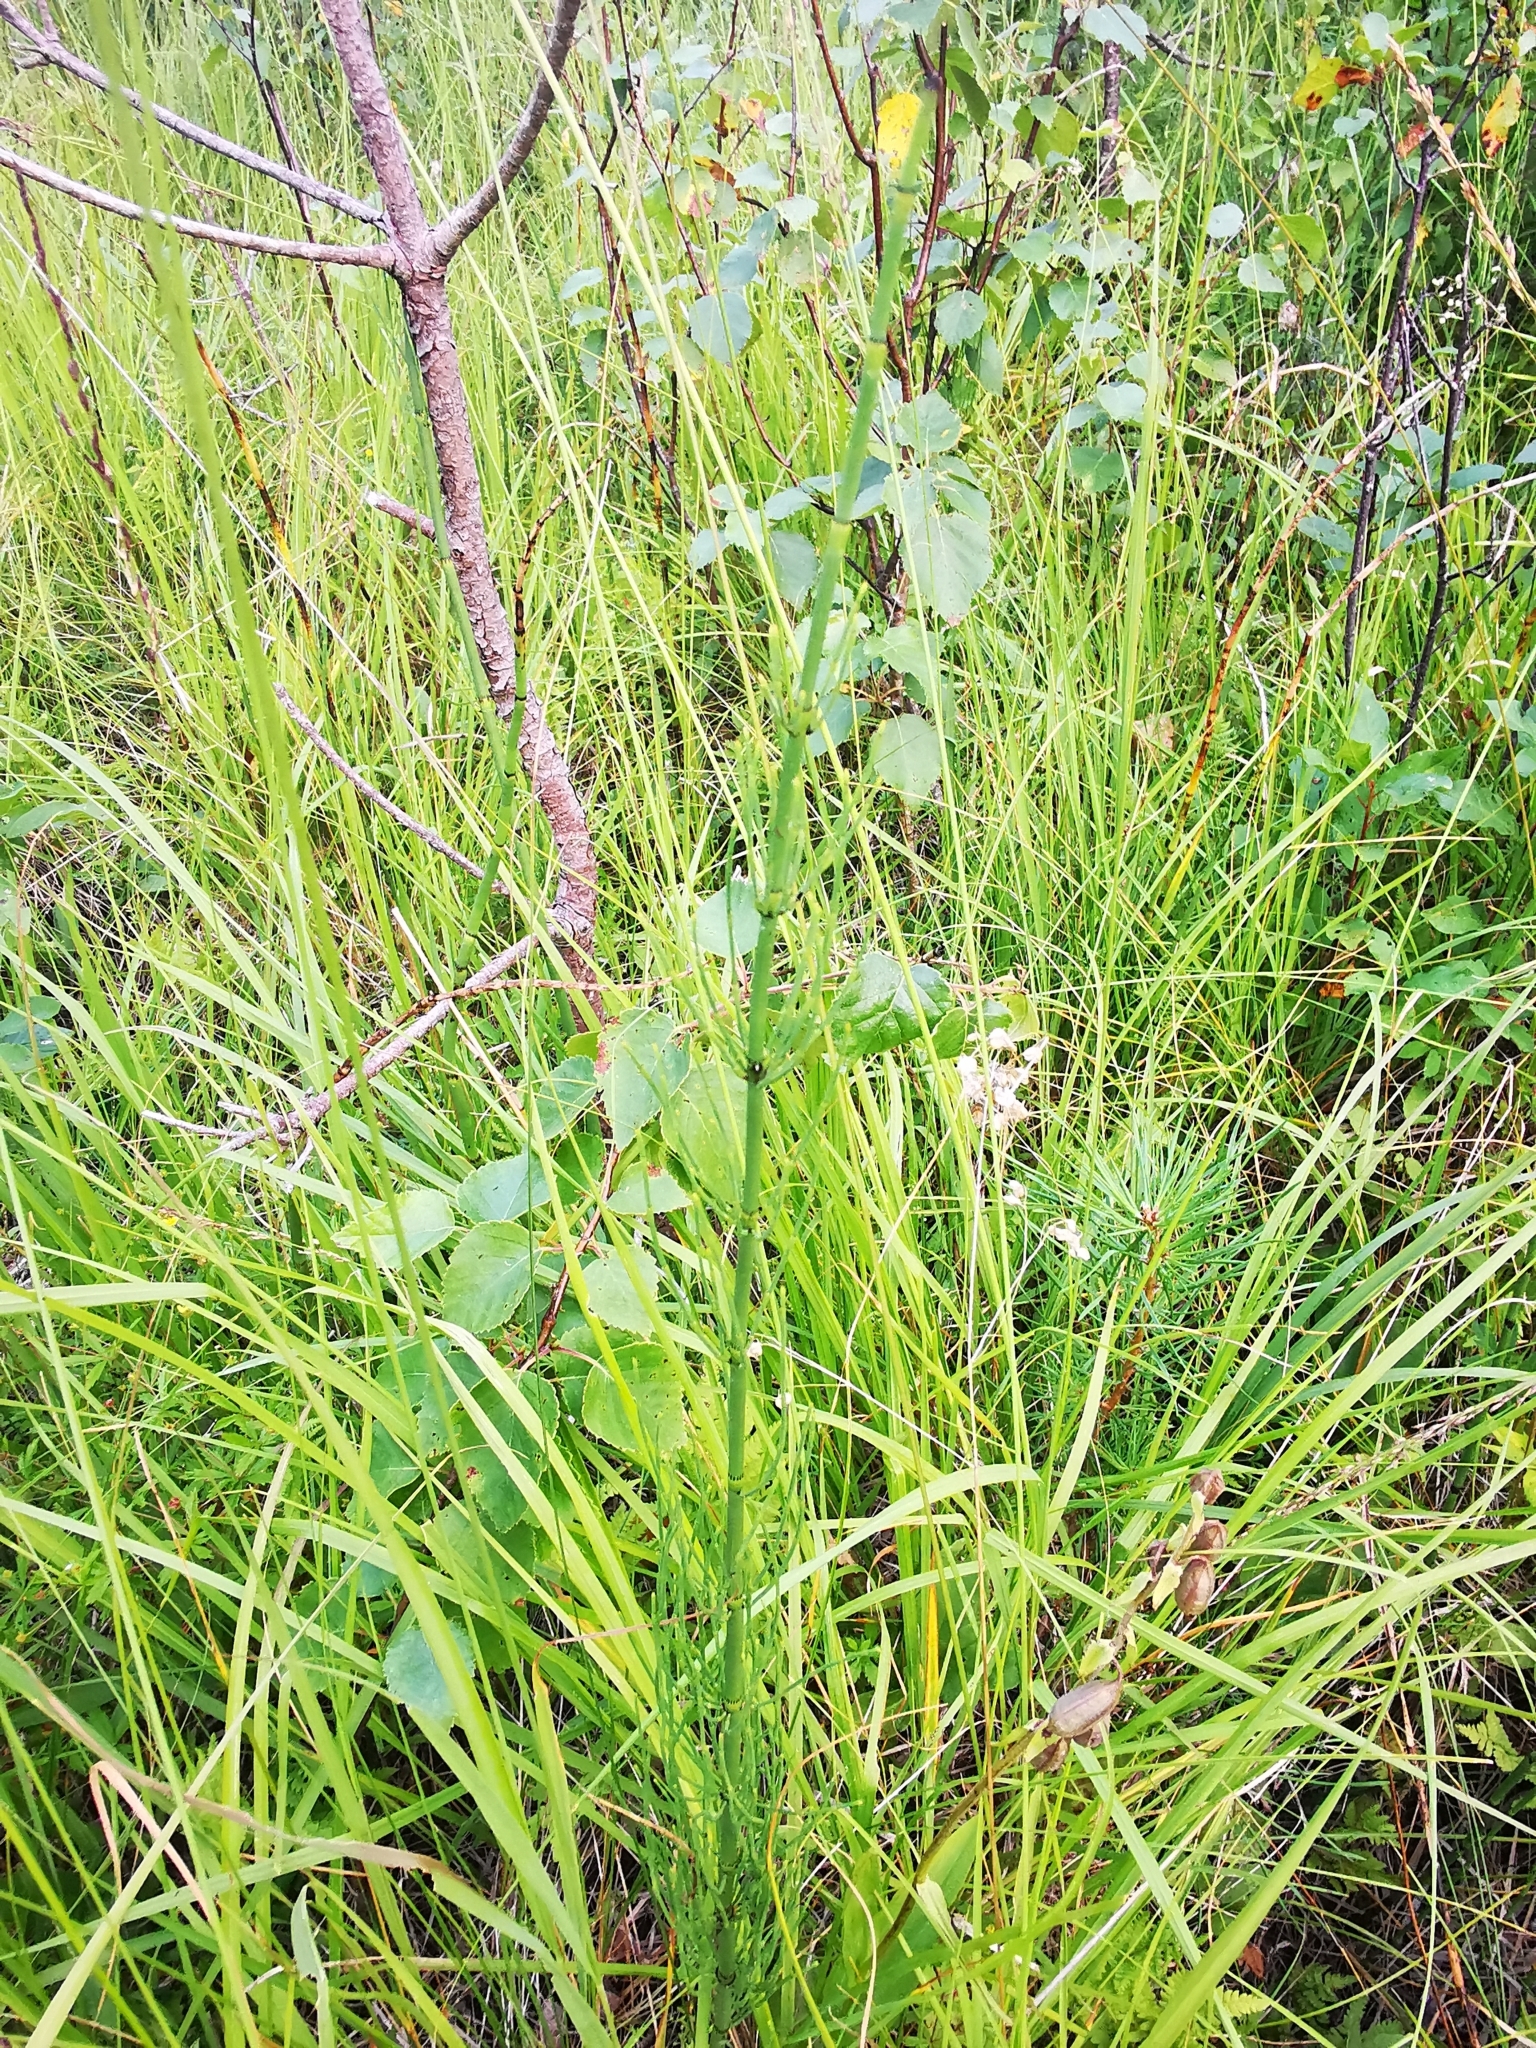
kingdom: Plantae
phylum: Tracheophyta
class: Polypodiopsida
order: Equisetales
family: Equisetaceae
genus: Equisetum
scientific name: Equisetum fluviatile
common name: Water horsetail
